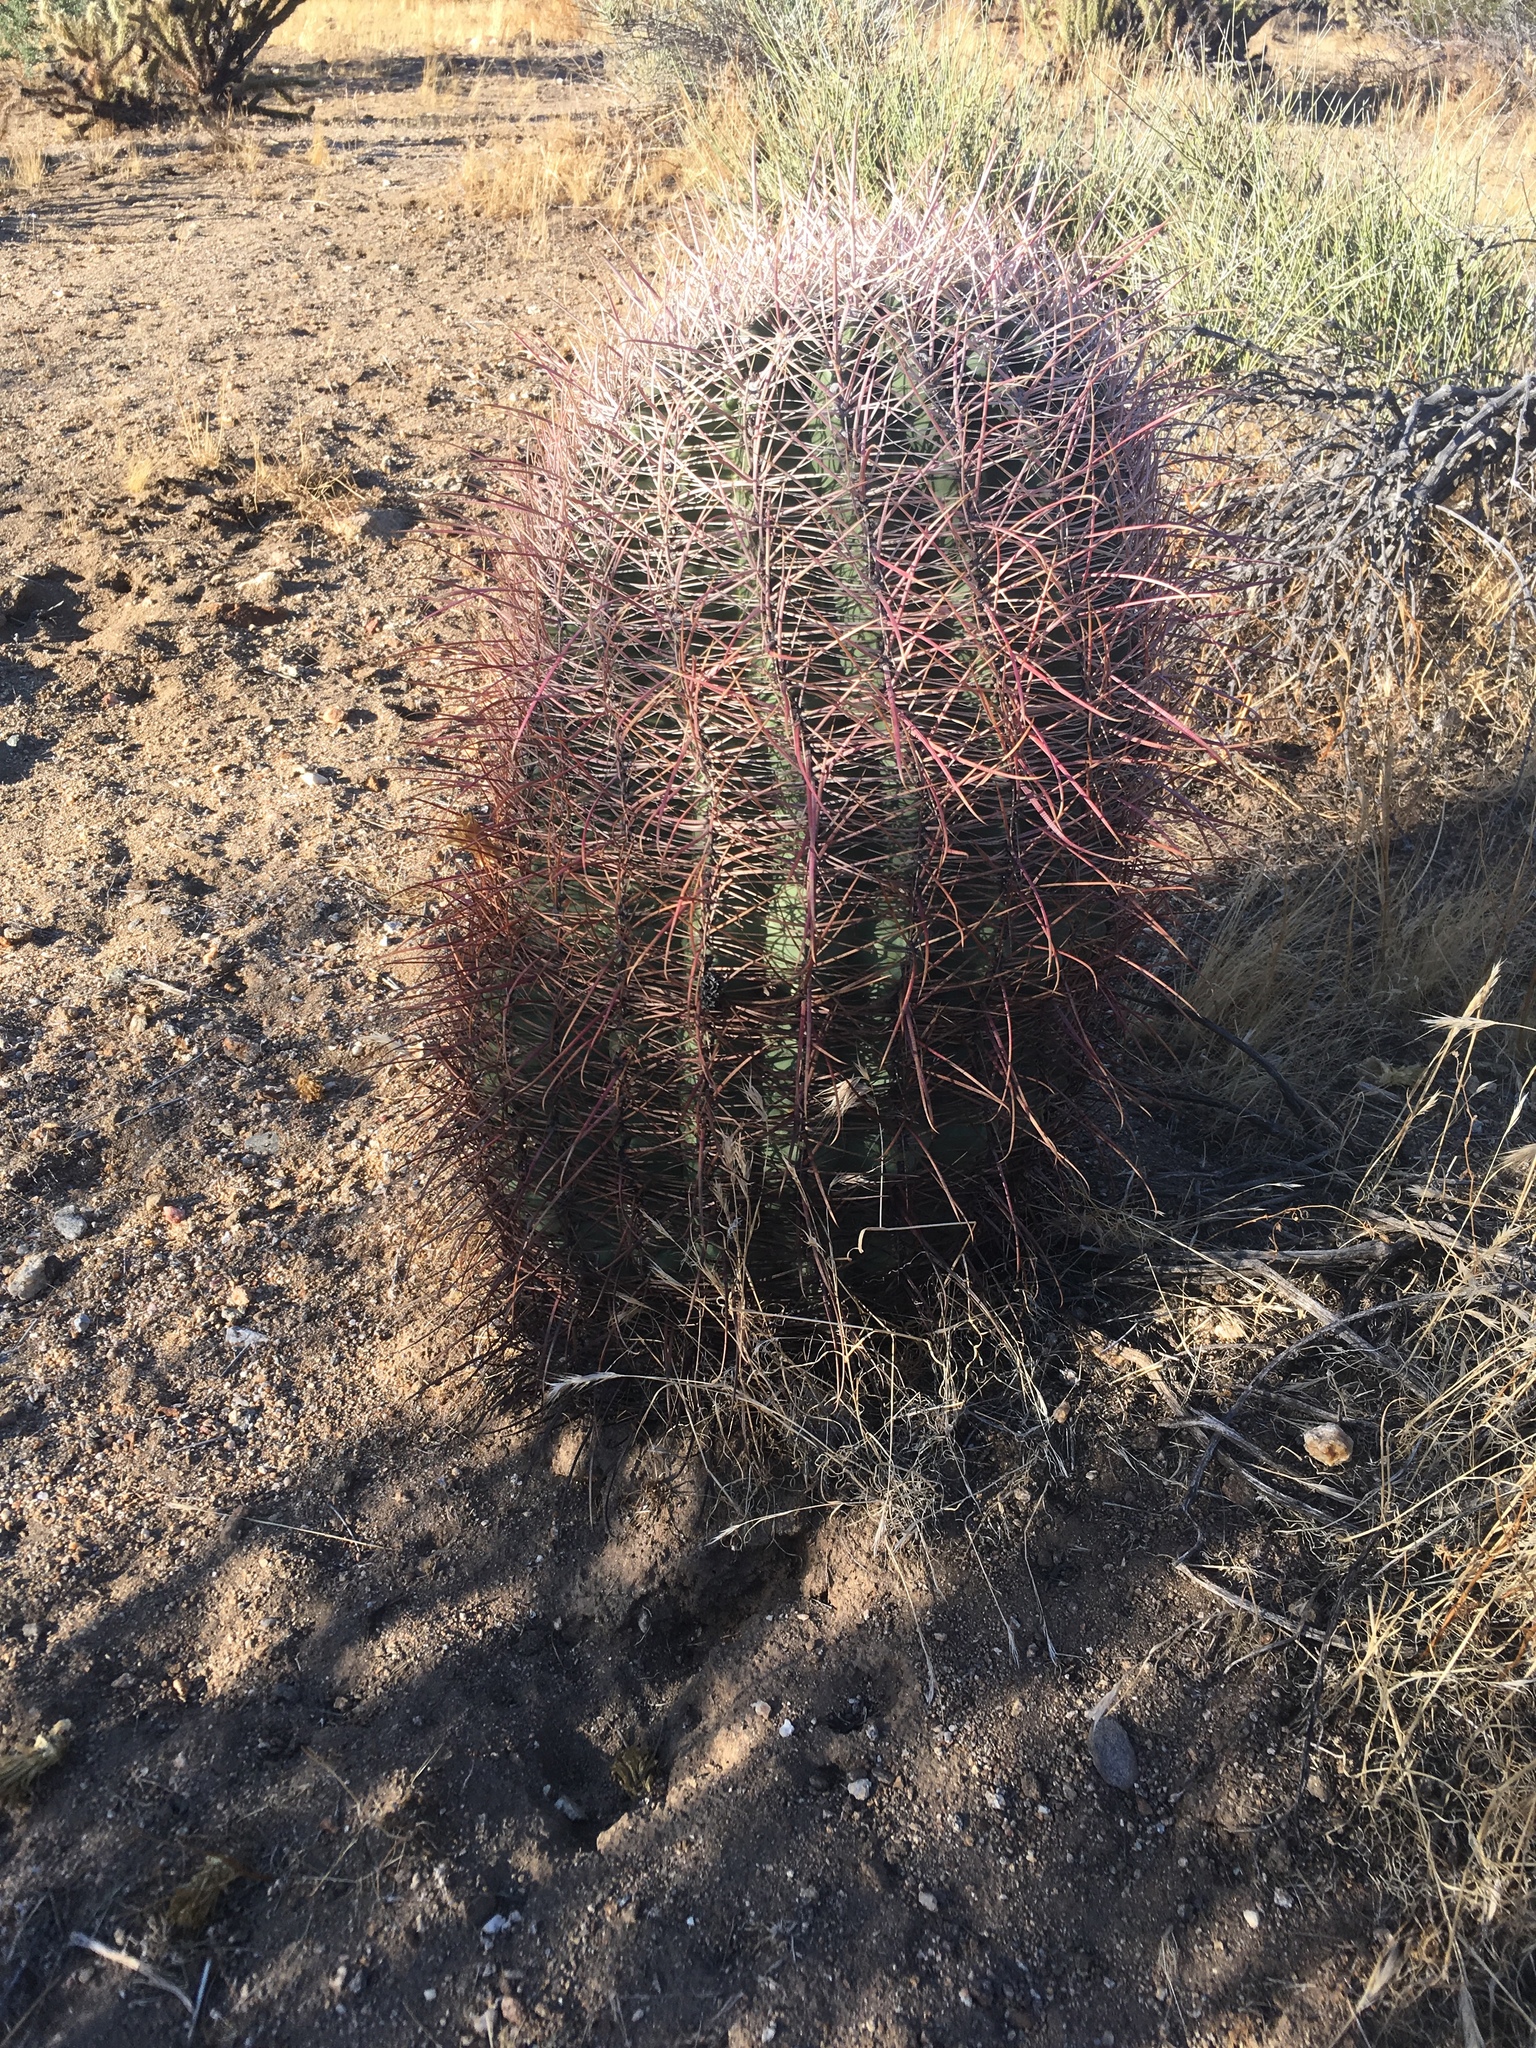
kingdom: Plantae
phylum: Tracheophyta
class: Magnoliopsida
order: Caryophyllales
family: Cactaceae
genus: Ferocactus
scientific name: Ferocactus cylindraceus
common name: California barrel cactus
